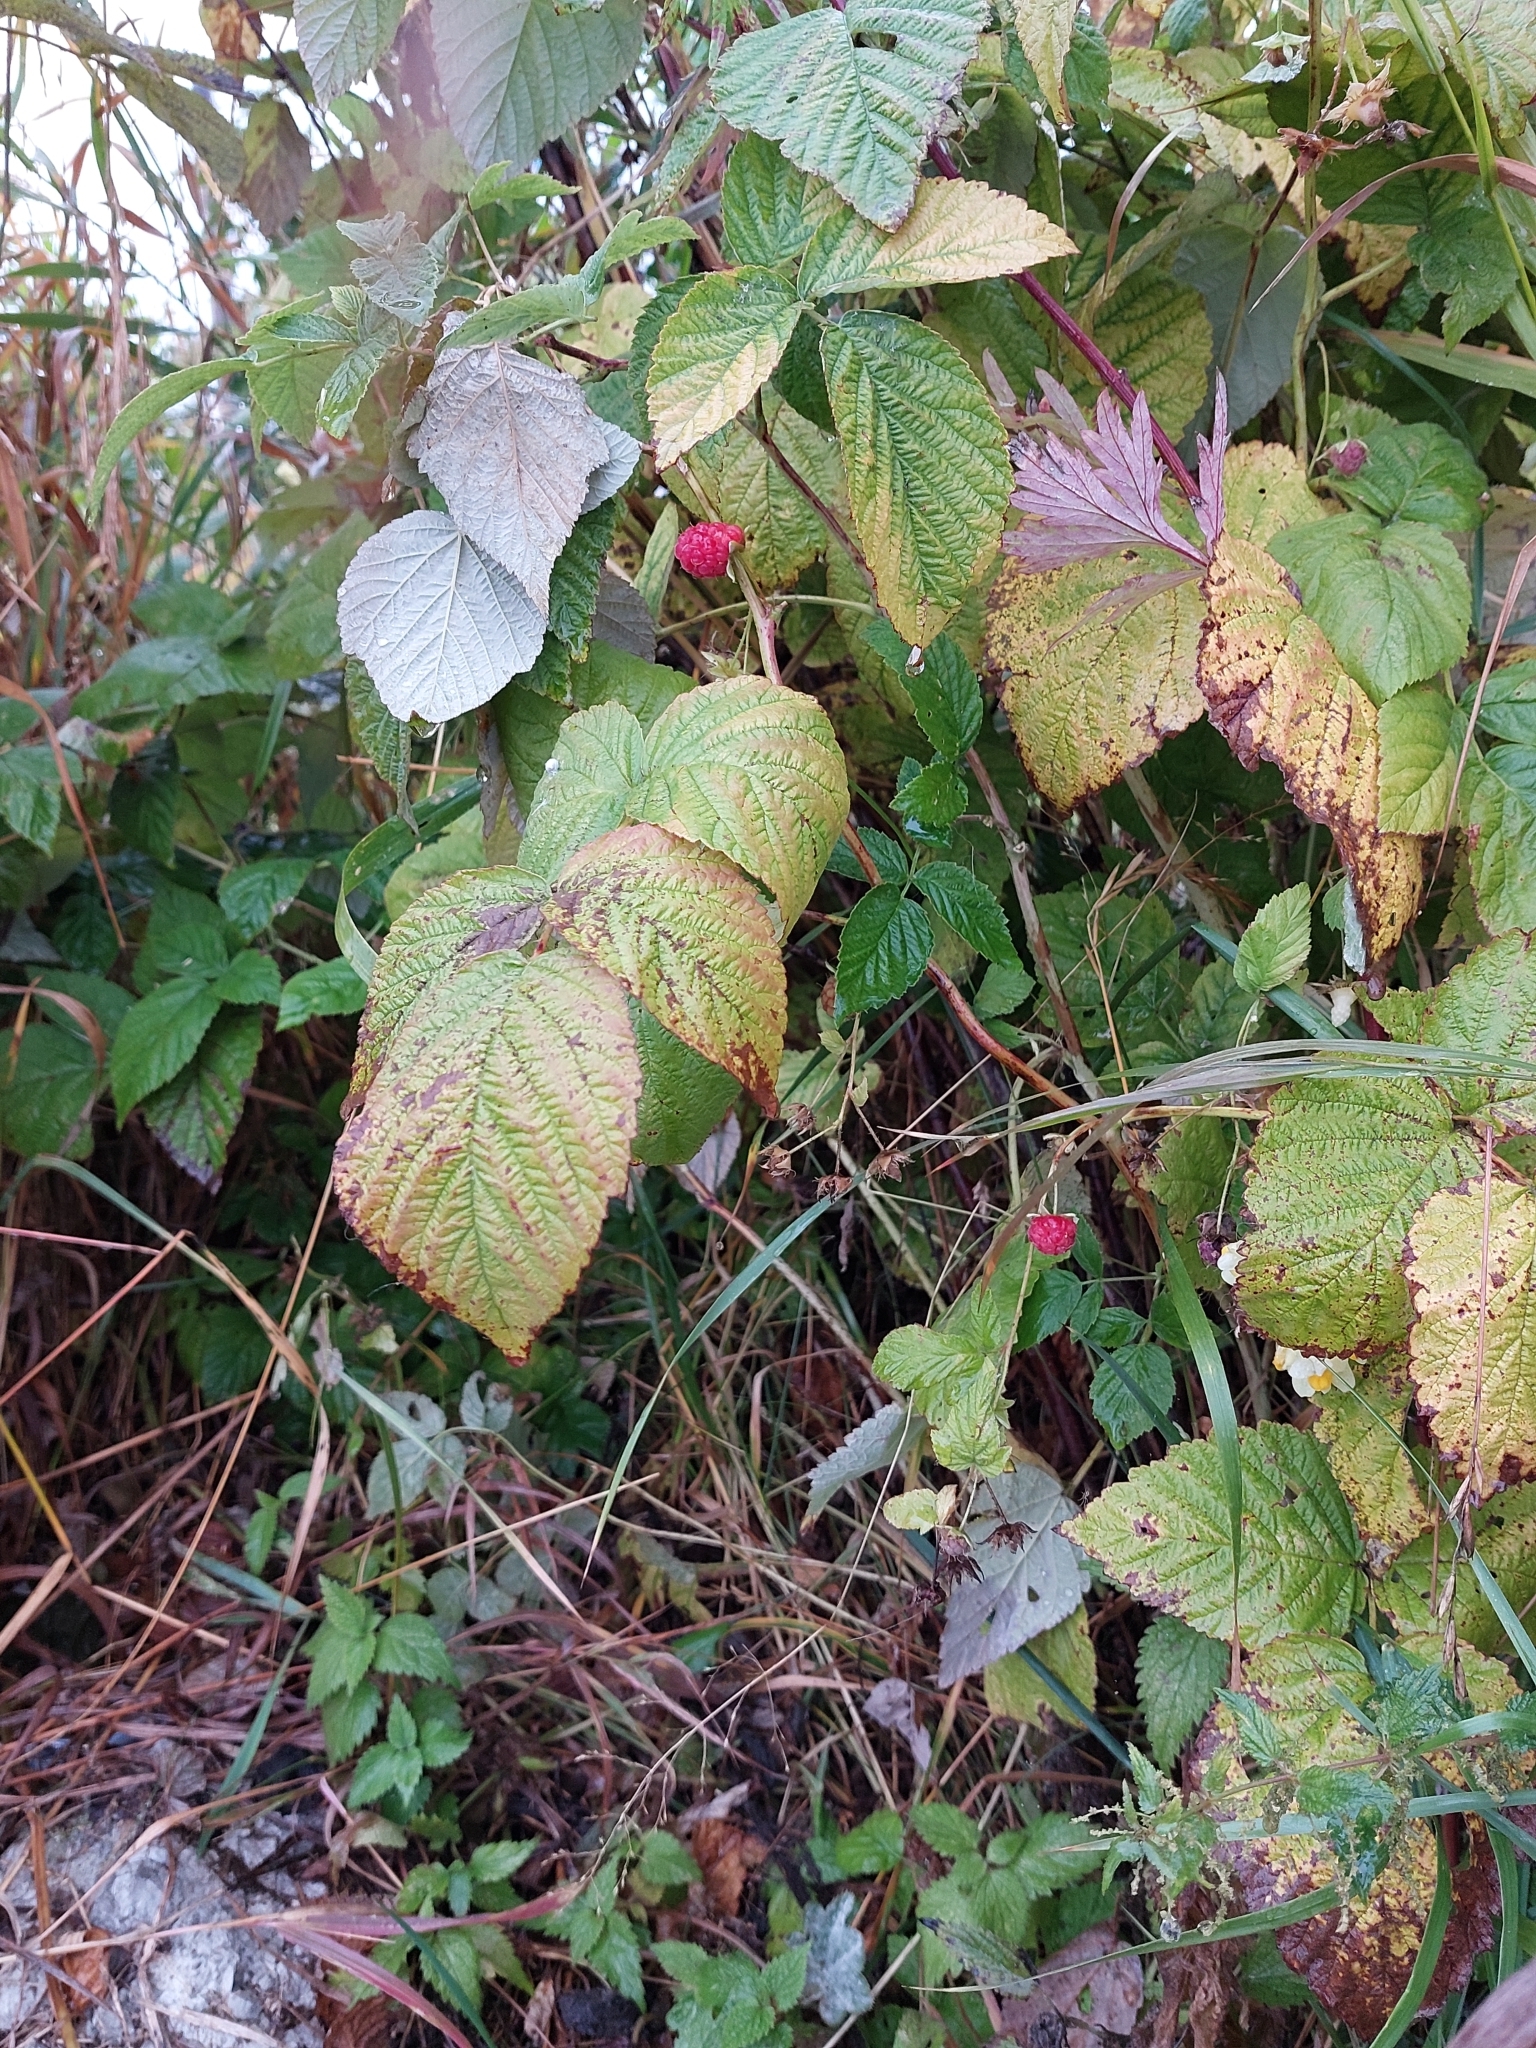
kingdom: Plantae
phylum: Tracheophyta
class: Magnoliopsida
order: Rosales
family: Rosaceae
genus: Rubus
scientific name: Rubus idaeus
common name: Raspberry
